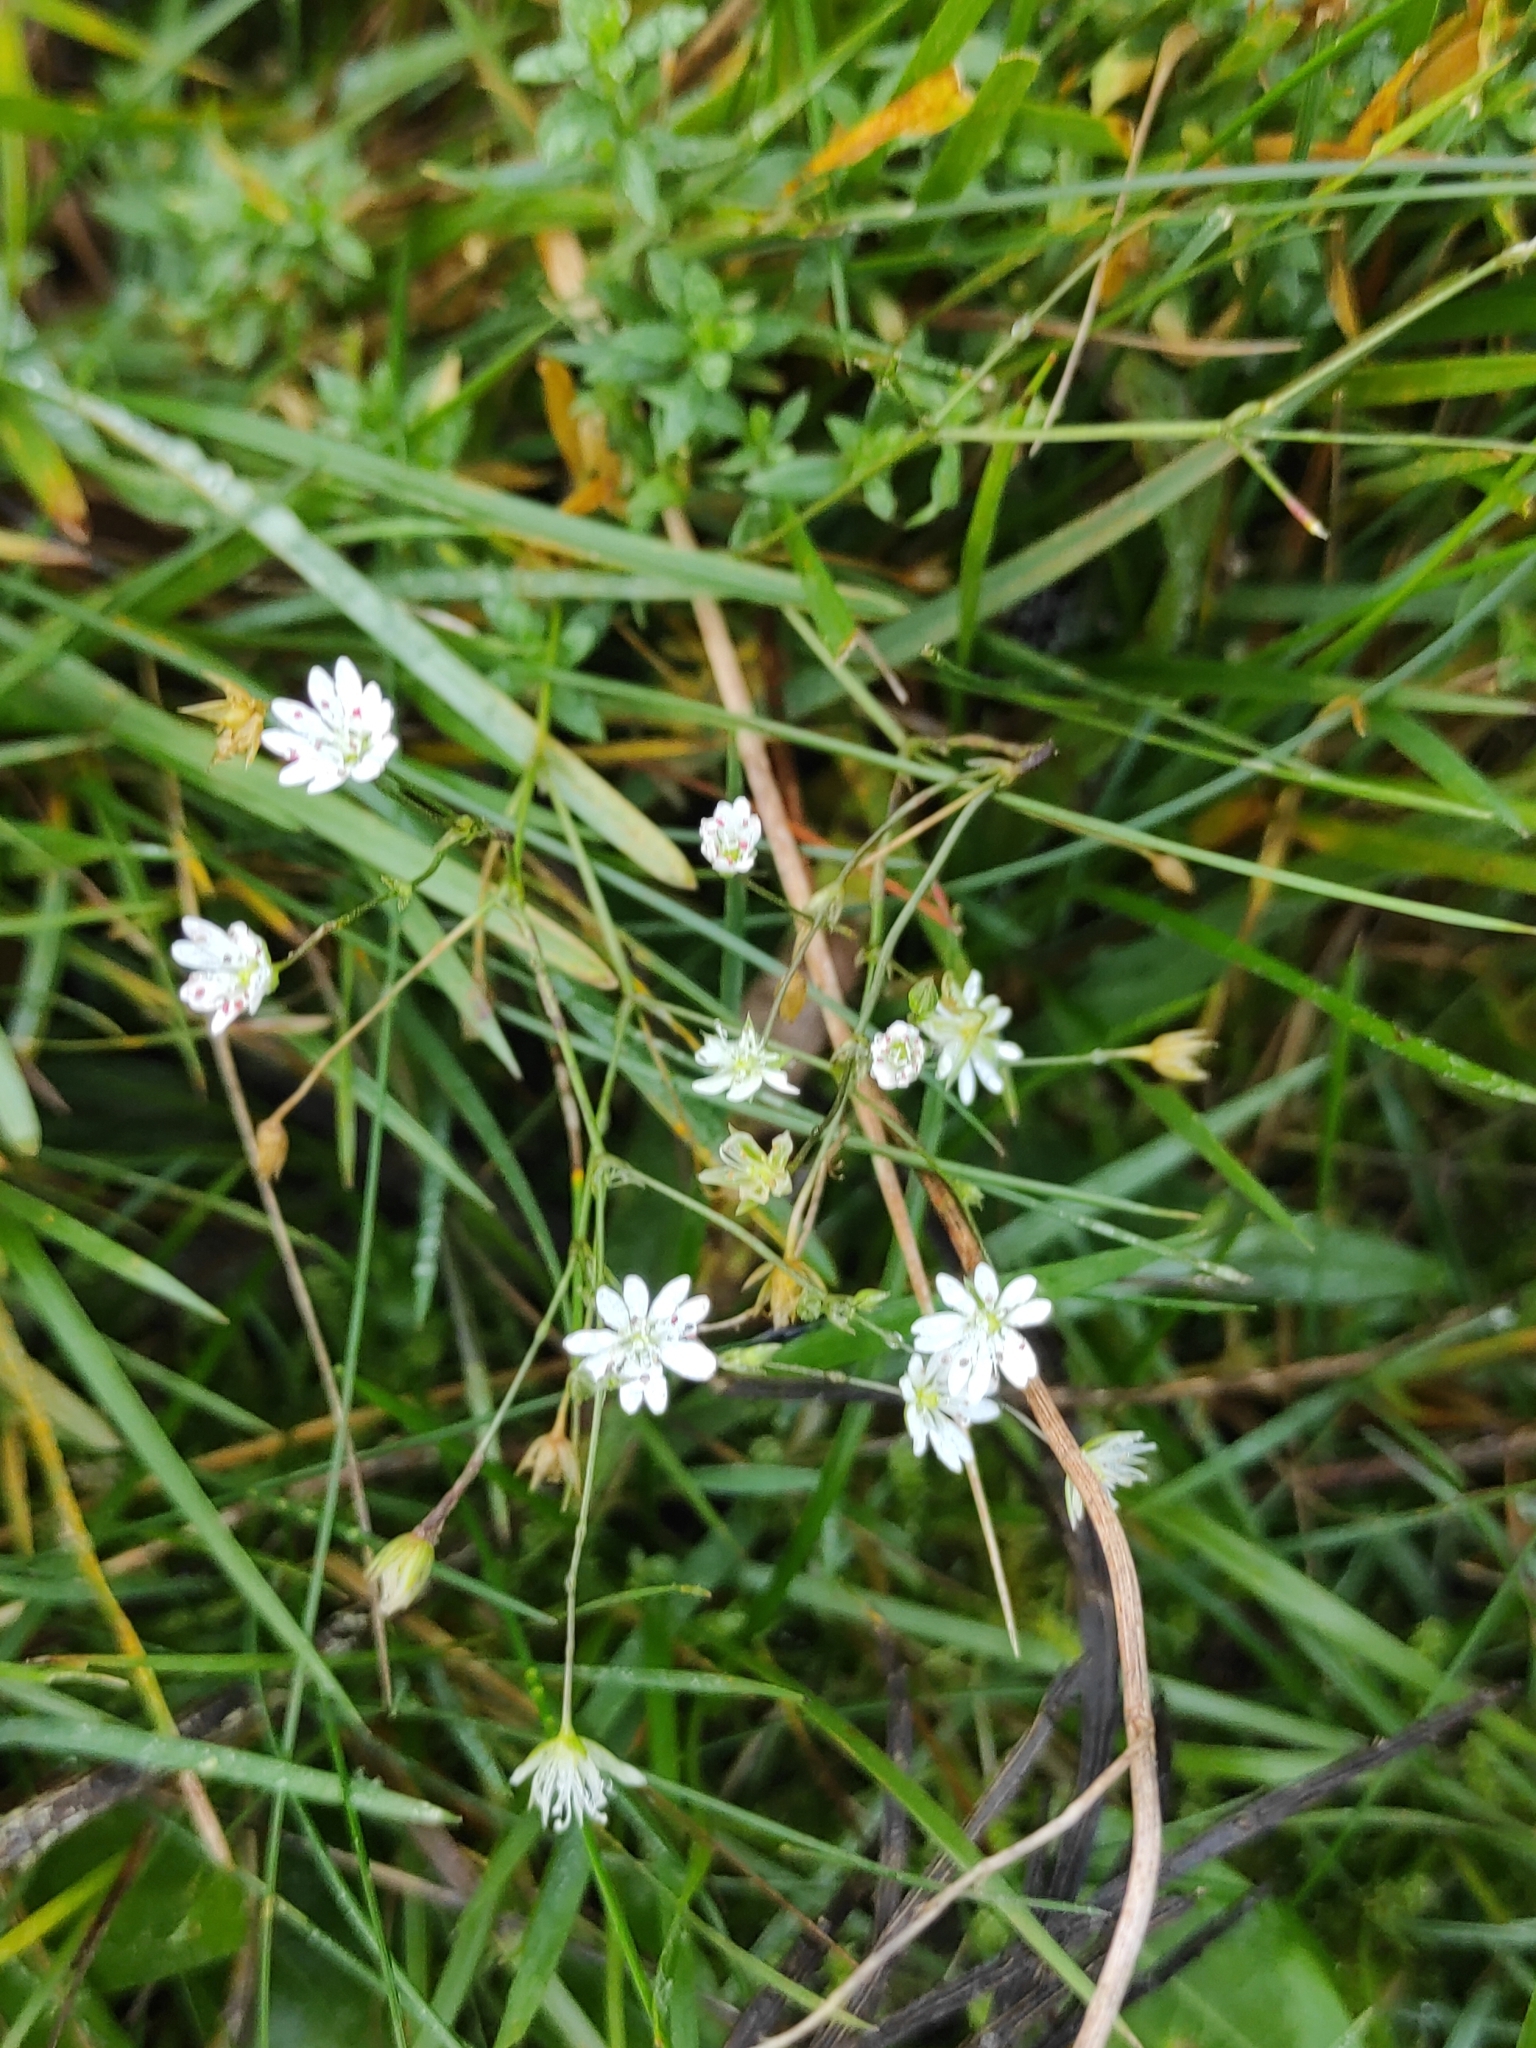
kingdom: Plantae
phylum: Tracheophyta
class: Magnoliopsida
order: Caryophyllales
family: Caryophyllaceae
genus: Stellaria
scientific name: Stellaria graminea
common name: Grass-like starwort
